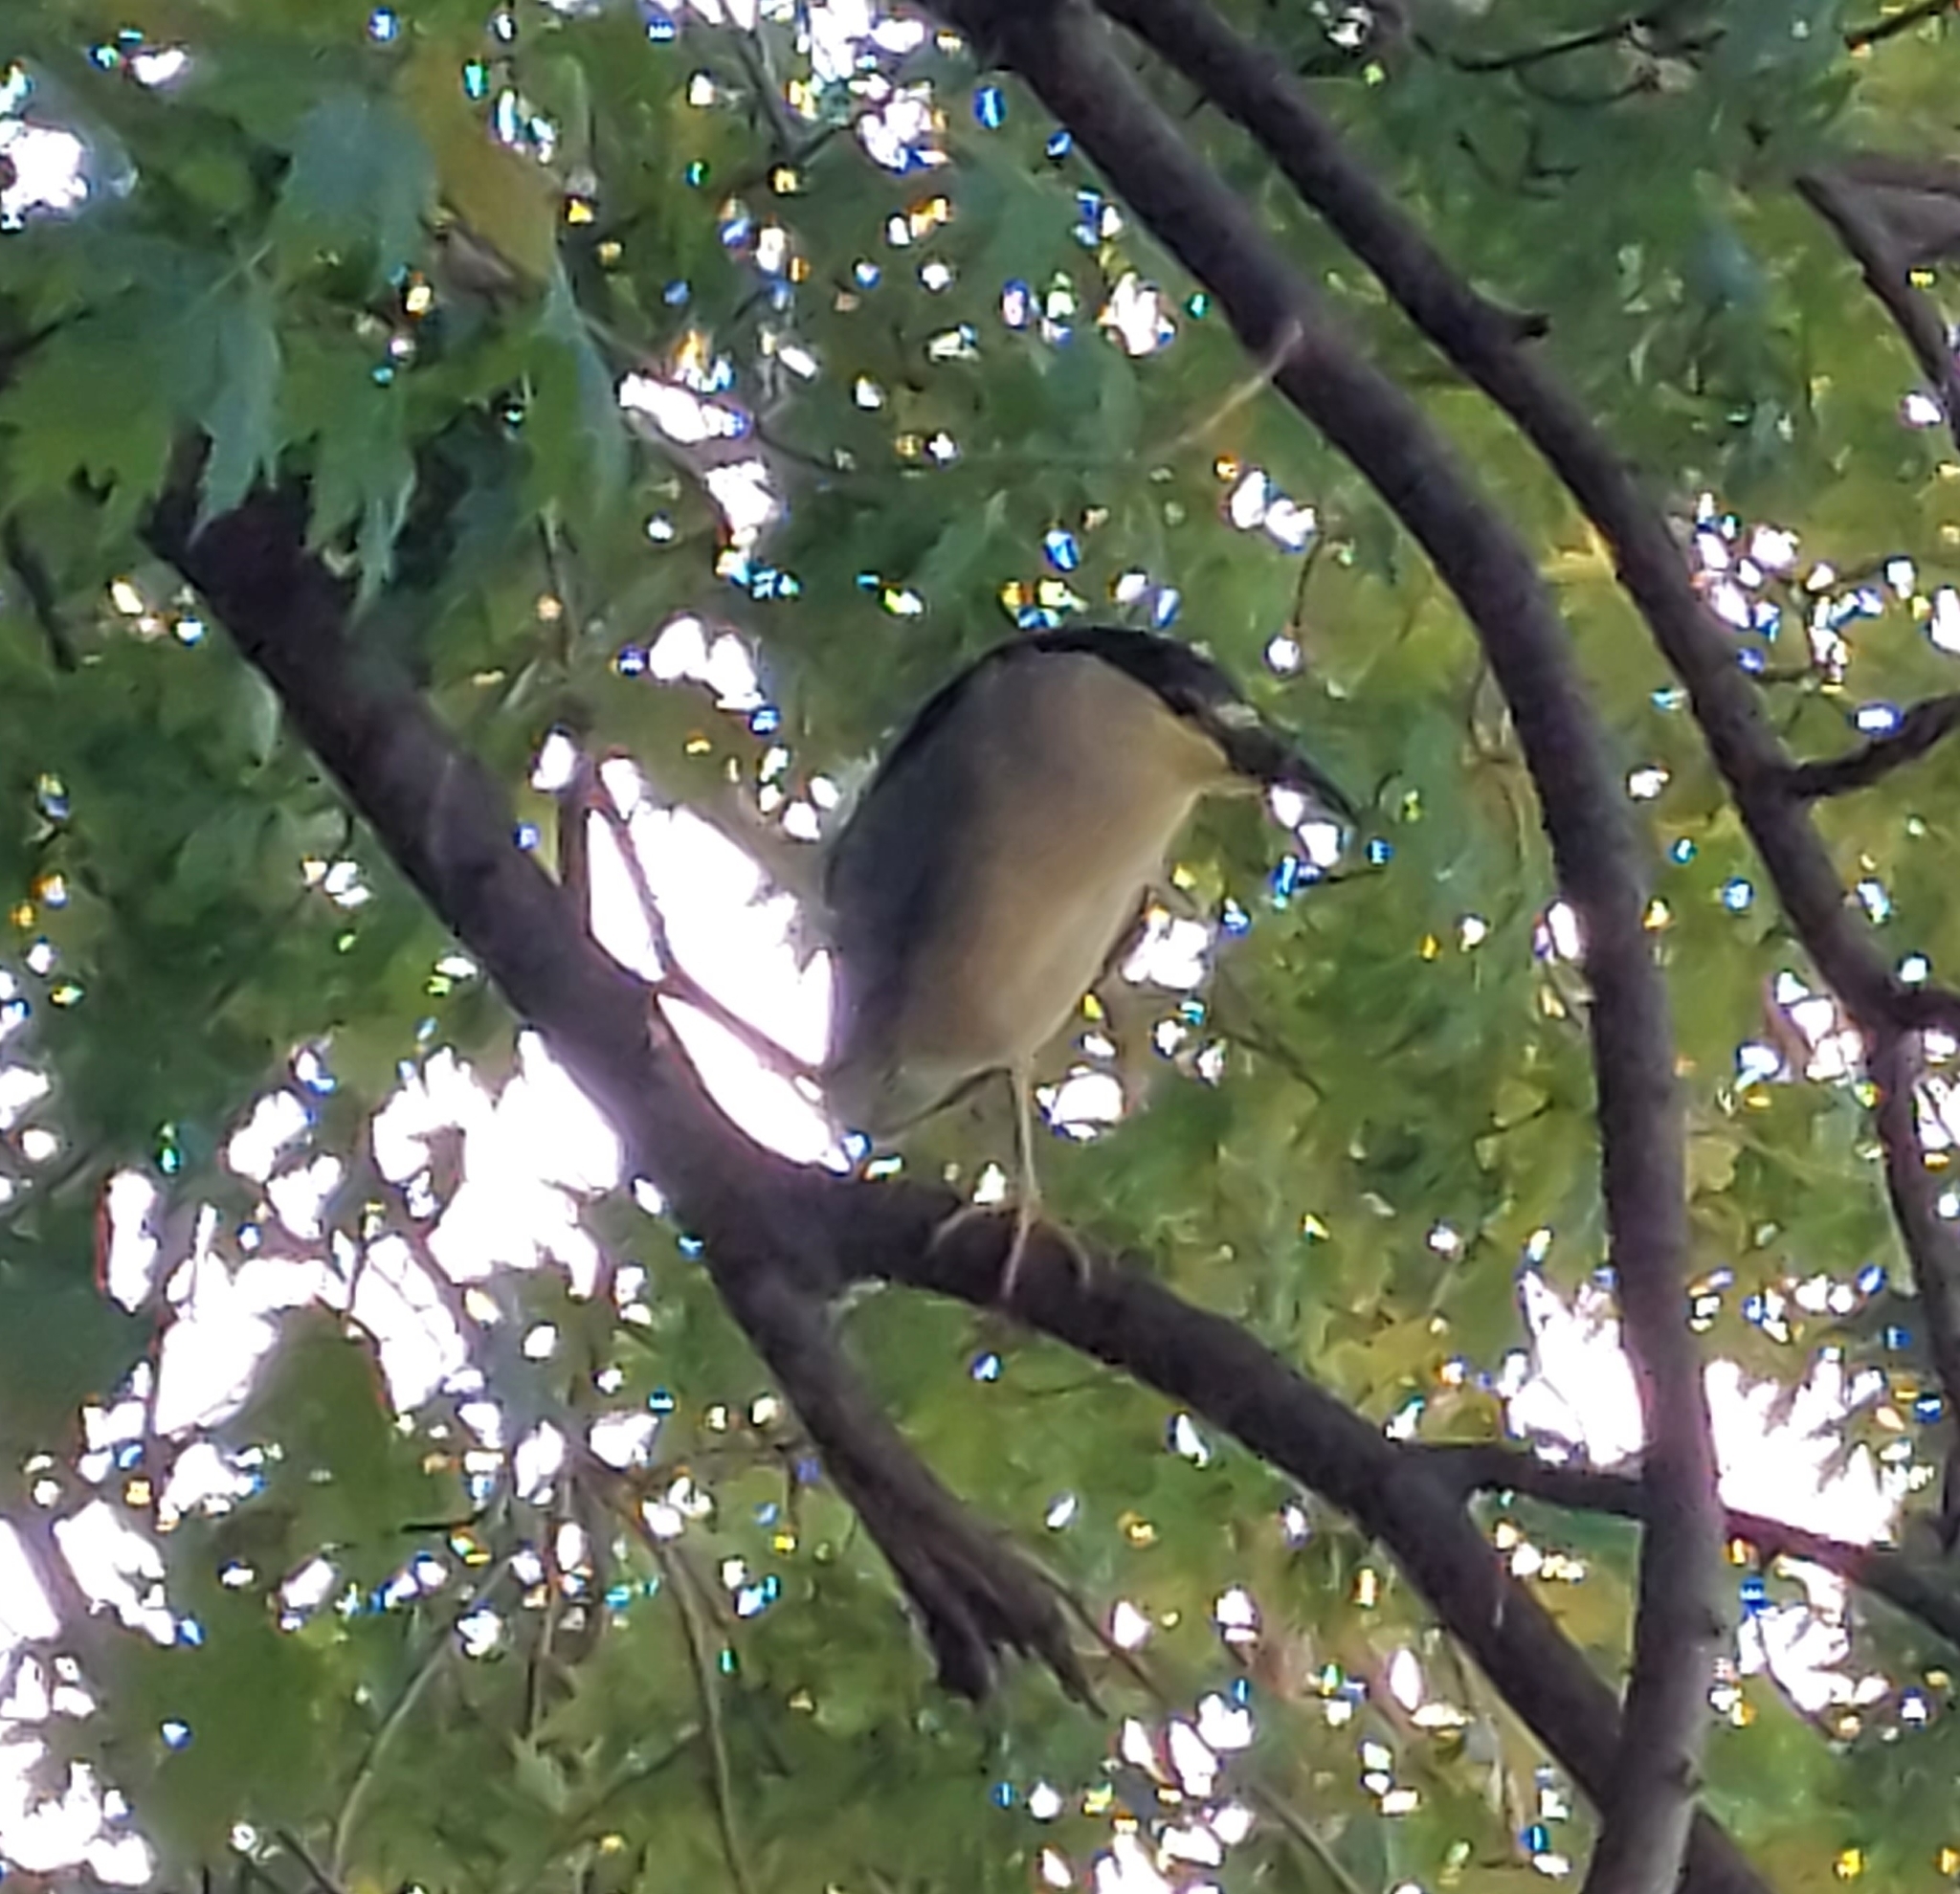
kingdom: Animalia
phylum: Chordata
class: Aves
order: Pelecaniformes
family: Ardeidae
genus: Nycticorax
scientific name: Nycticorax nycticorax
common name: Black-crowned night heron
